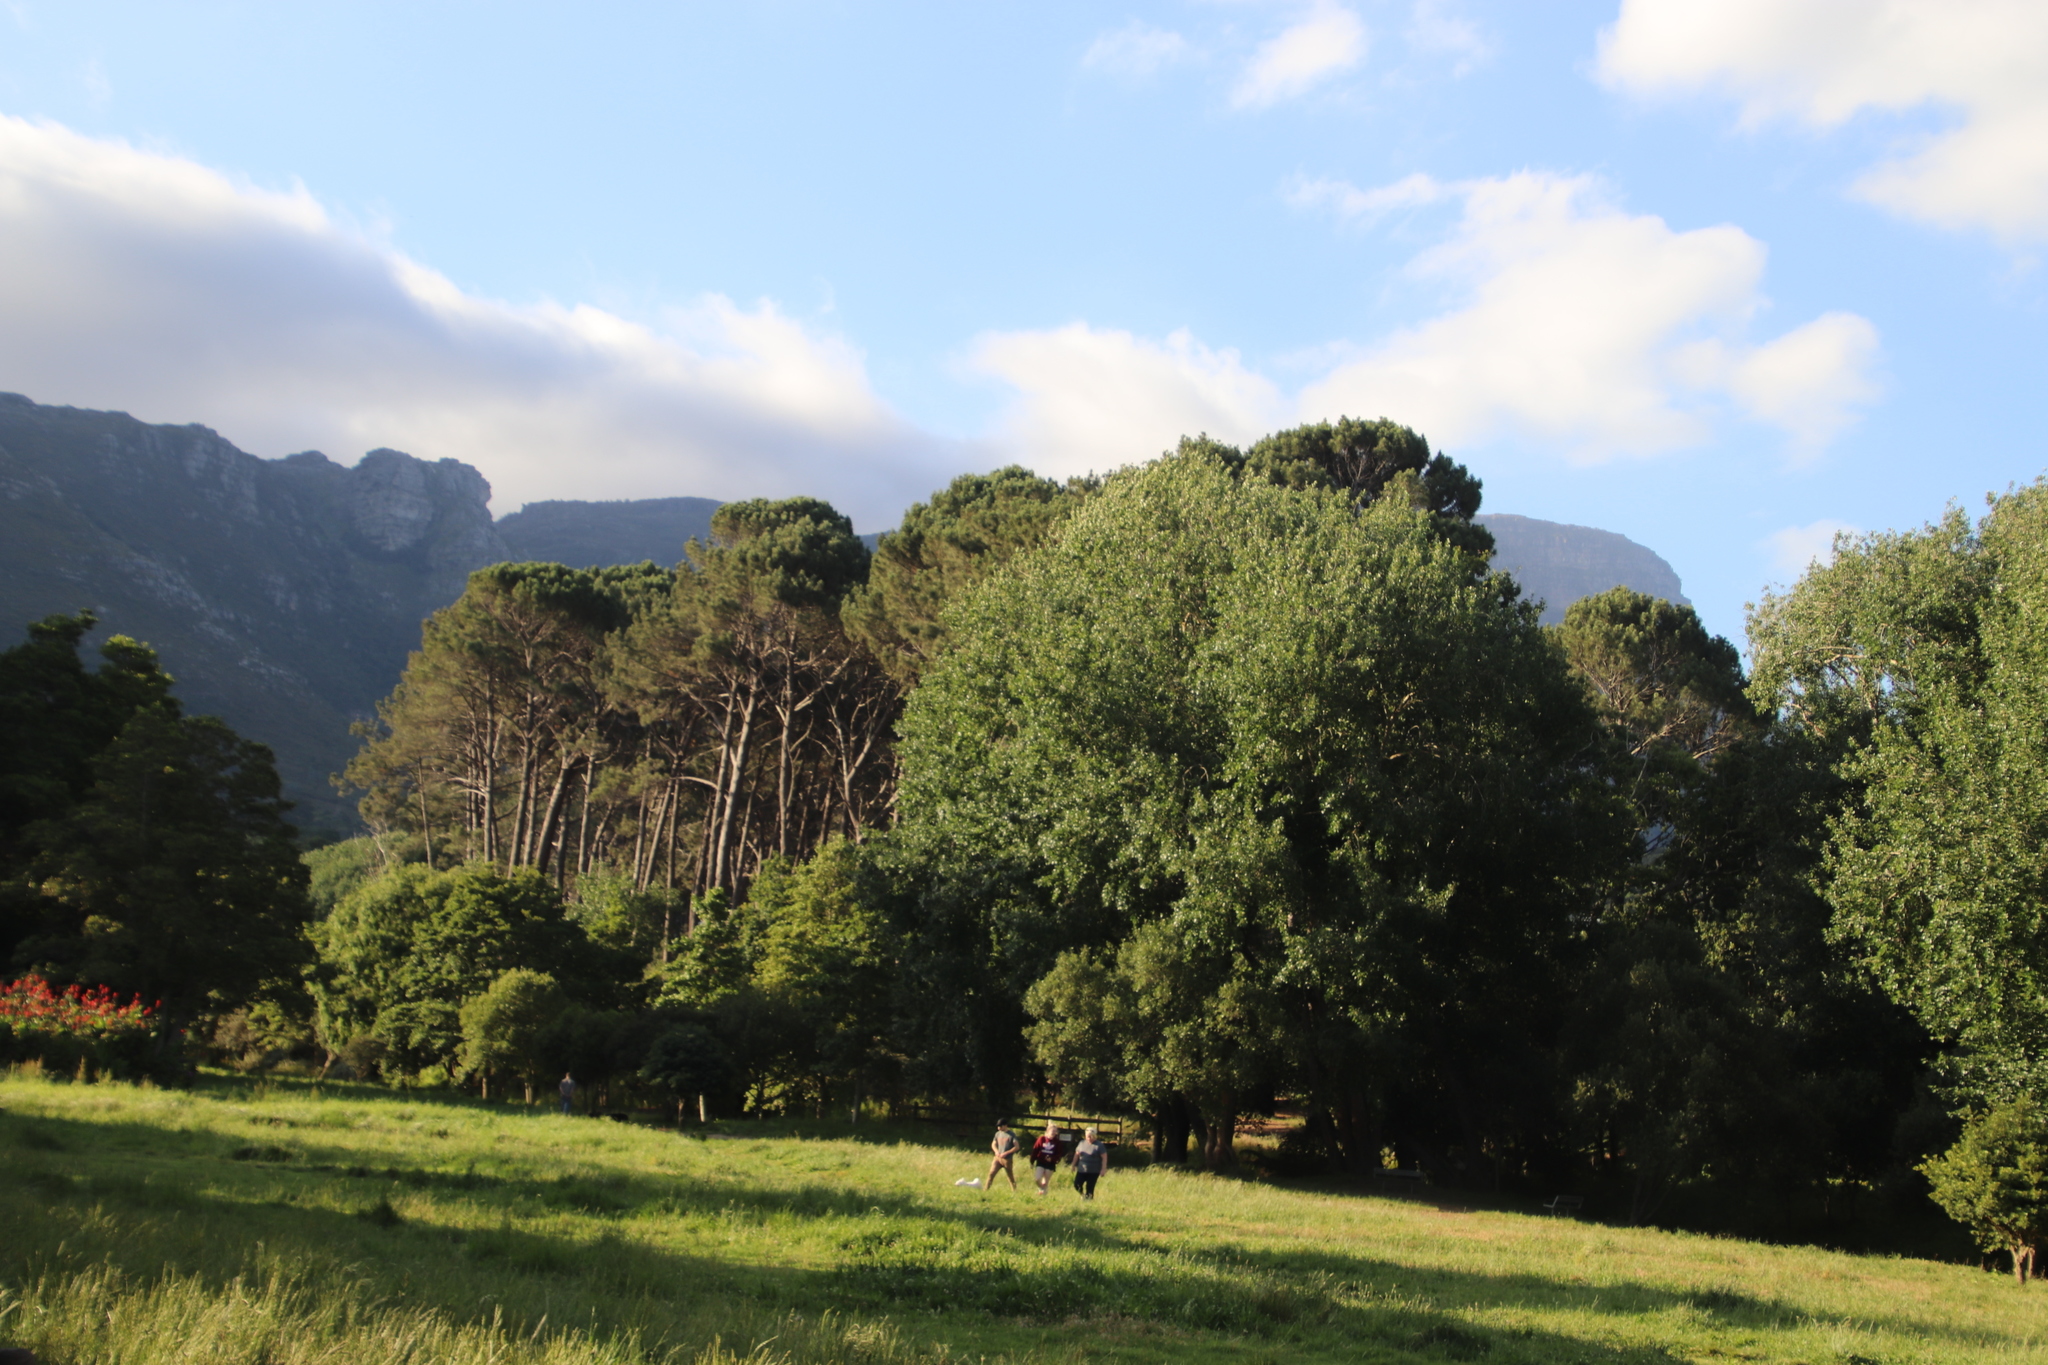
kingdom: Plantae
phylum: Tracheophyta
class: Magnoliopsida
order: Malpighiales
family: Salicaceae
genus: Populus
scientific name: Populus canescens
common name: Gray poplar
